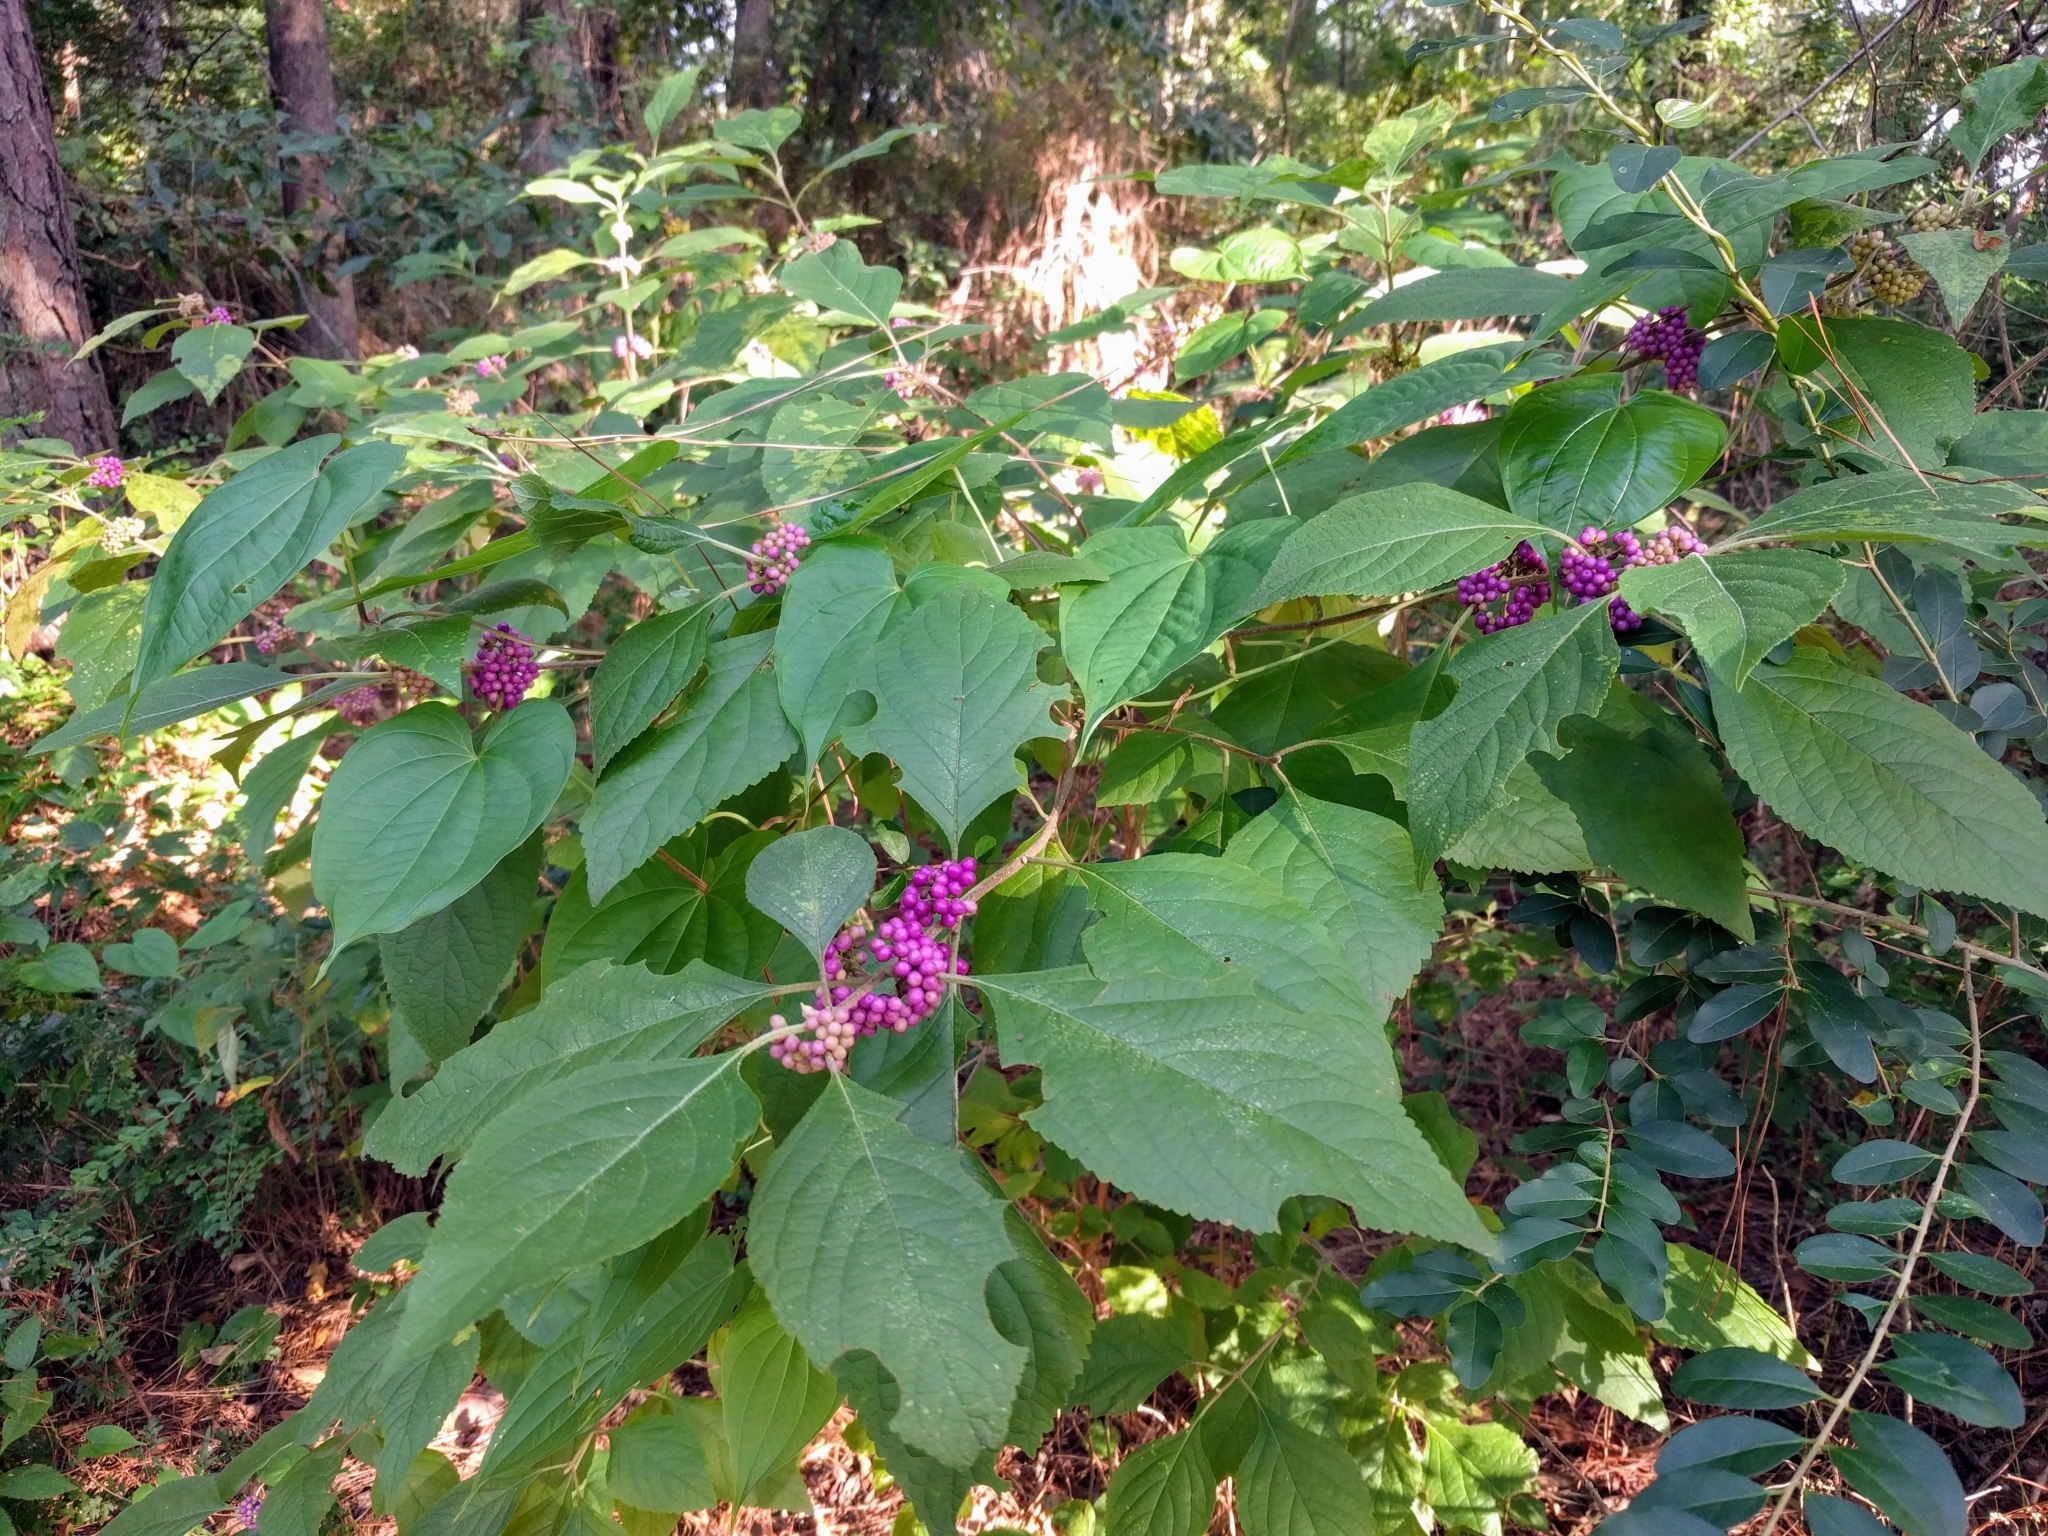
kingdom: Plantae
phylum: Tracheophyta
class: Magnoliopsida
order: Lamiales
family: Lamiaceae
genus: Callicarpa
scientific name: Callicarpa americana
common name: American beautyberry
